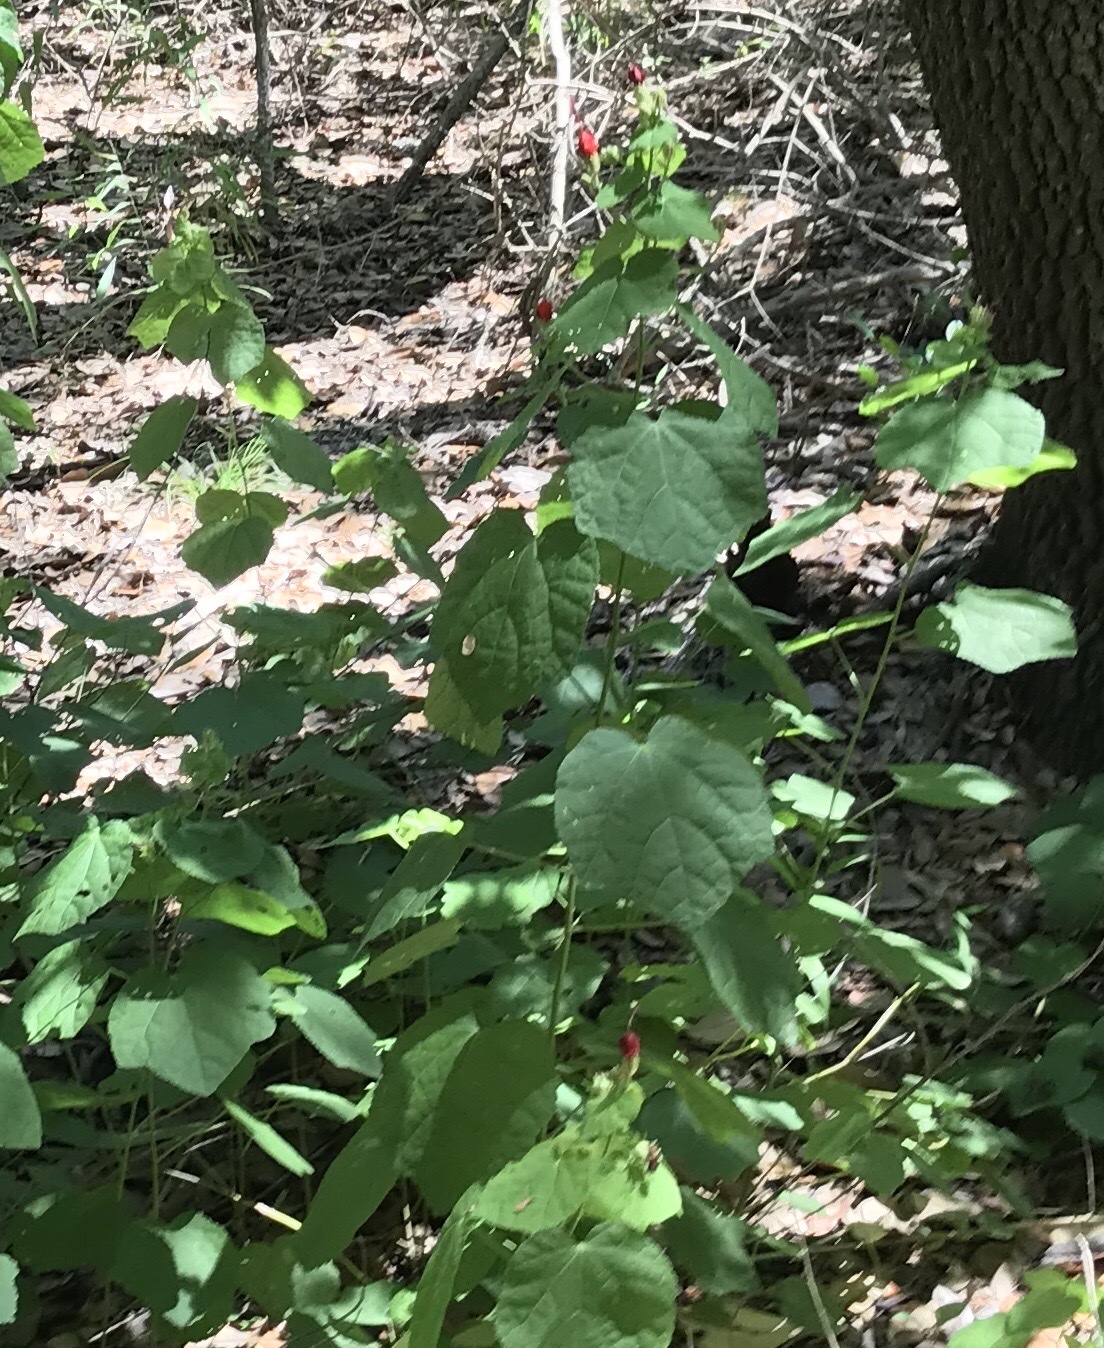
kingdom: Plantae
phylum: Tracheophyta
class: Magnoliopsida
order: Malvales
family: Malvaceae
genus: Malvaviscus
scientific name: Malvaviscus arboreus
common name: Wax mallow
